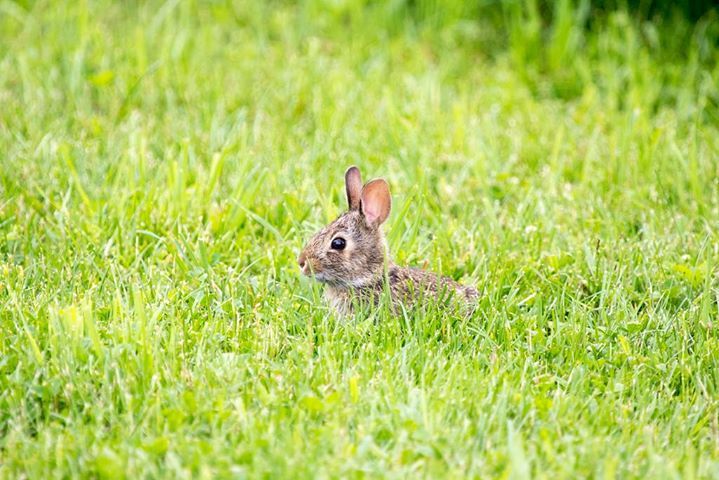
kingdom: Animalia
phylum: Chordata
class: Mammalia
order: Lagomorpha
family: Leporidae
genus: Sylvilagus
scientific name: Sylvilagus floridanus
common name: Eastern cottontail
